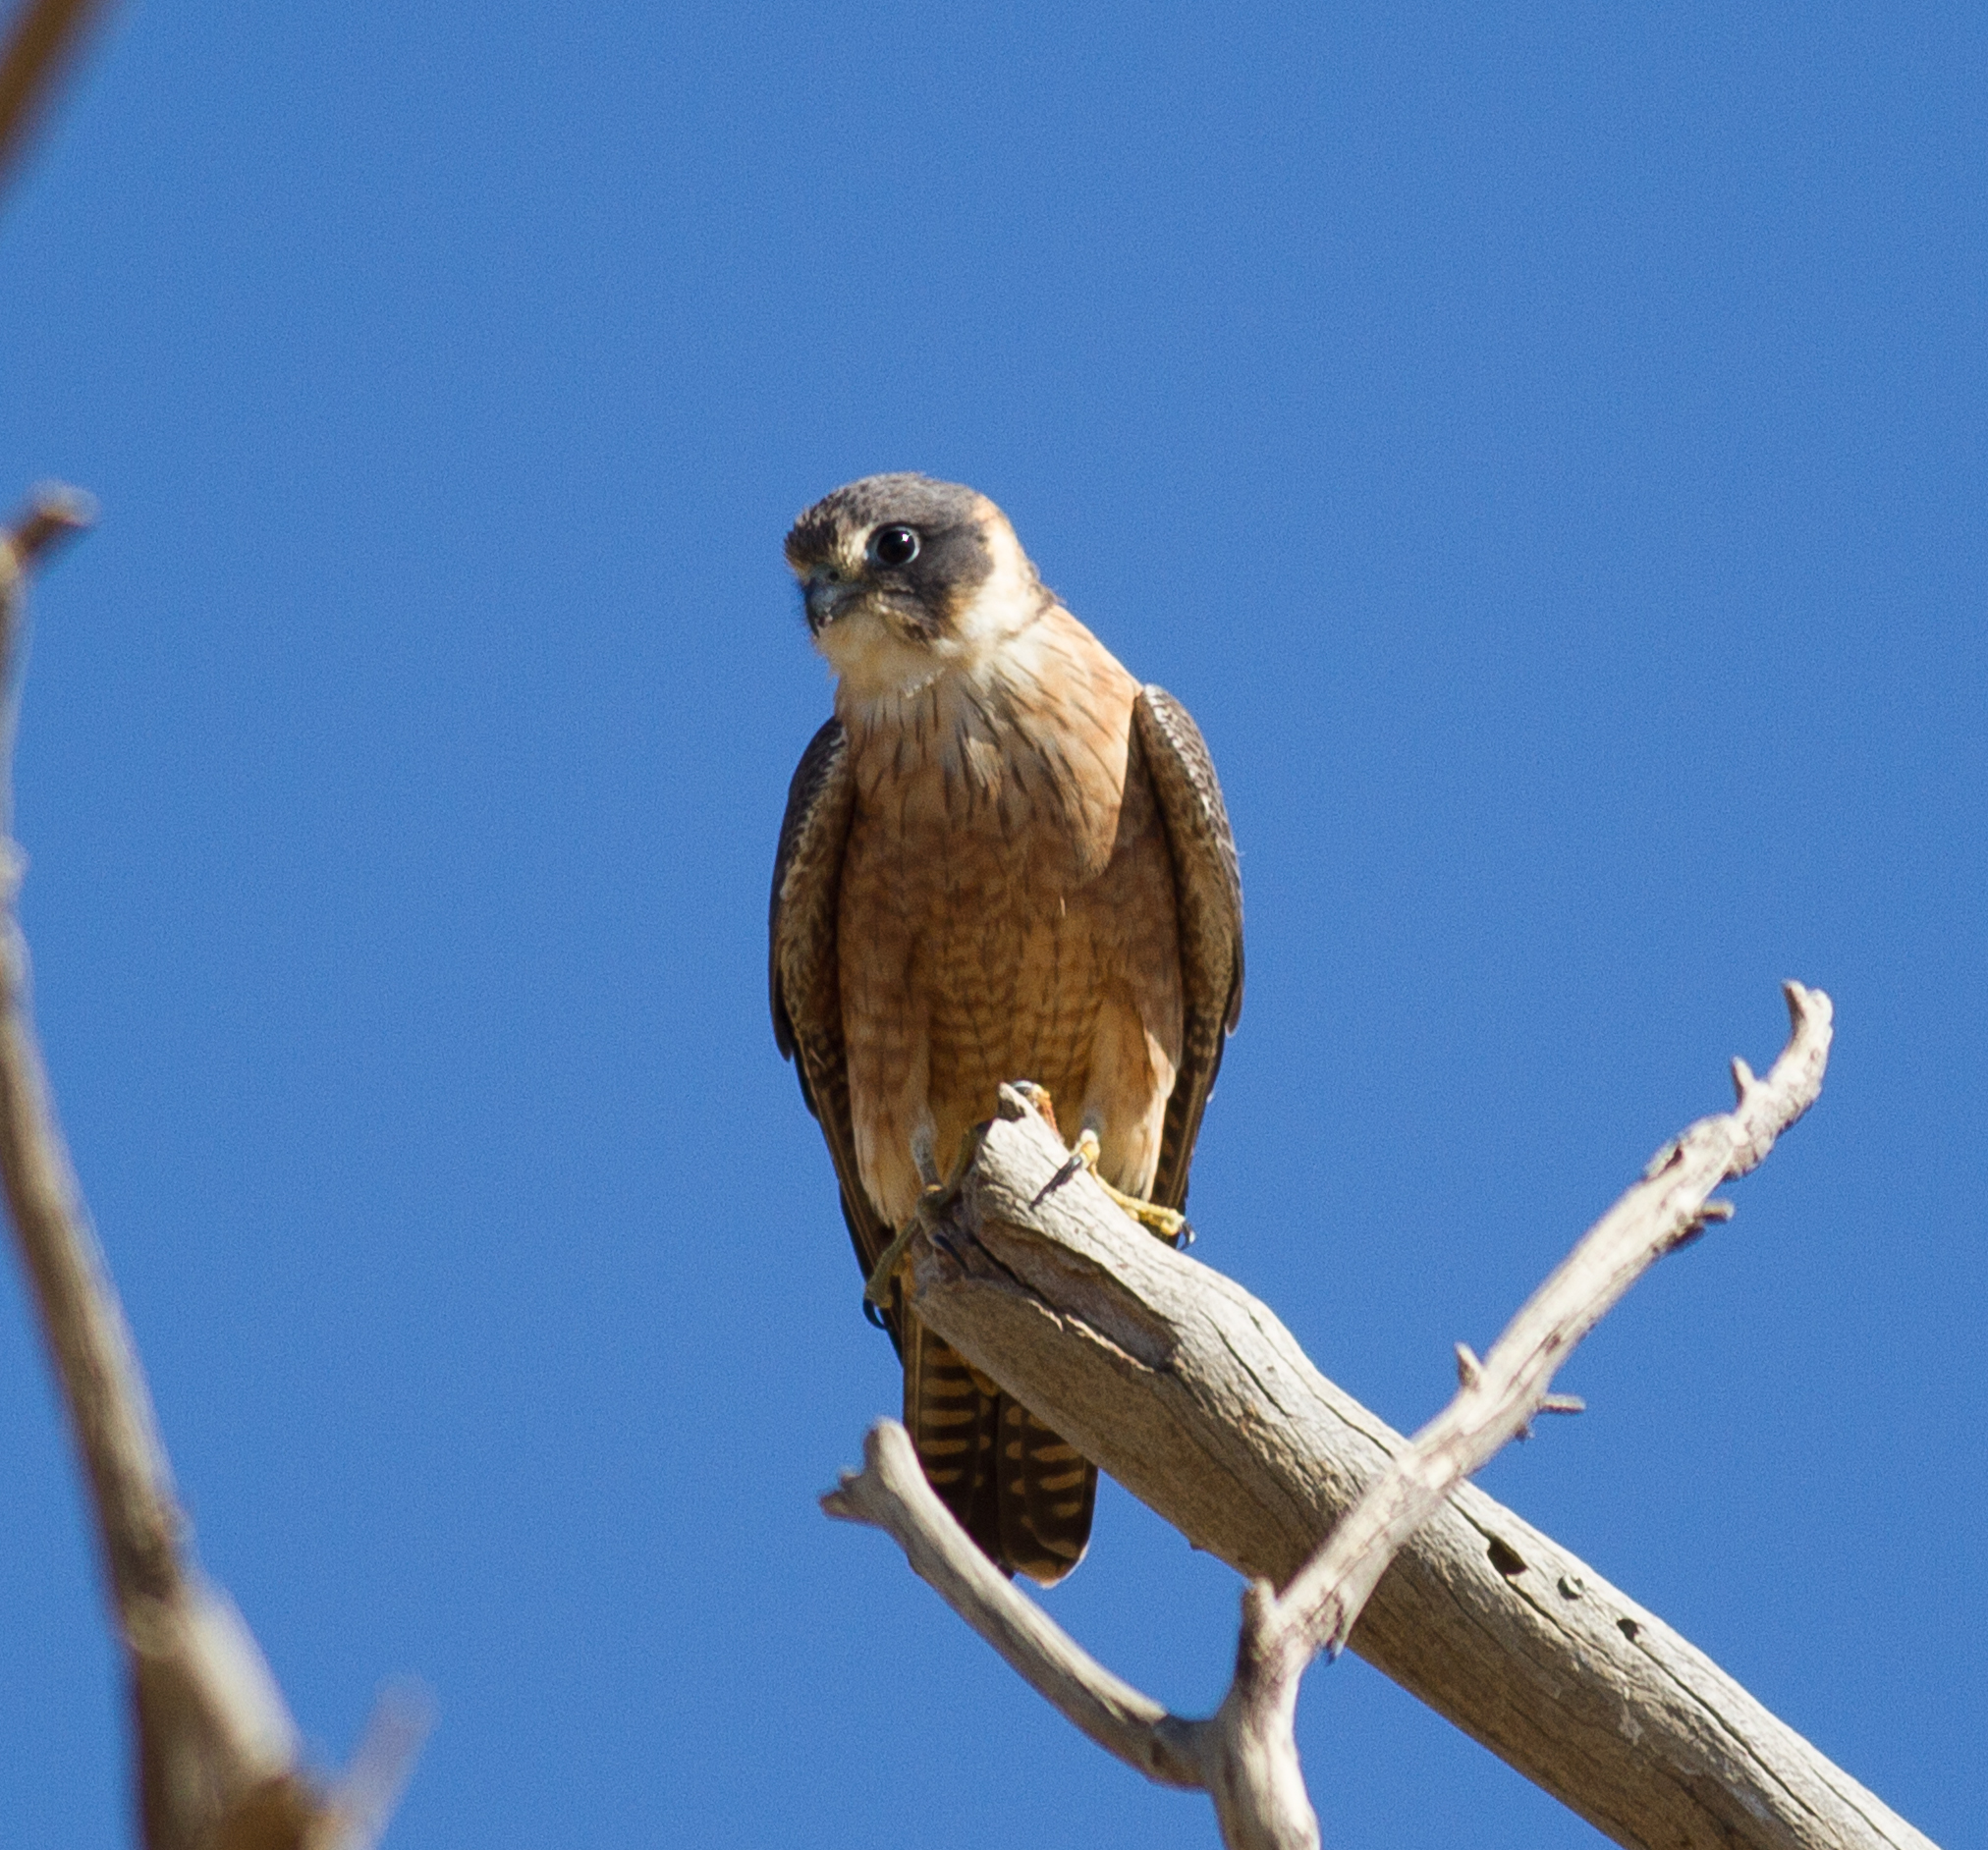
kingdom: Animalia
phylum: Chordata
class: Aves
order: Falconiformes
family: Falconidae
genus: Falco
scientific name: Falco longipennis
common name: Australian hobby
